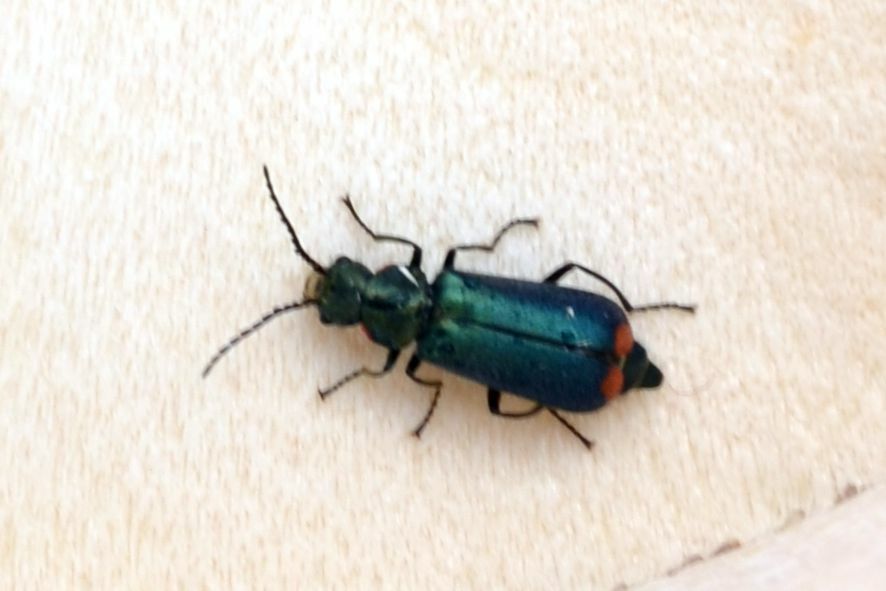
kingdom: Animalia
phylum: Arthropoda
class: Insecta
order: Coleoptera
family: Melyridae
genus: Malachius
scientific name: Malachius bipustulatus
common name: Malachite beetle
